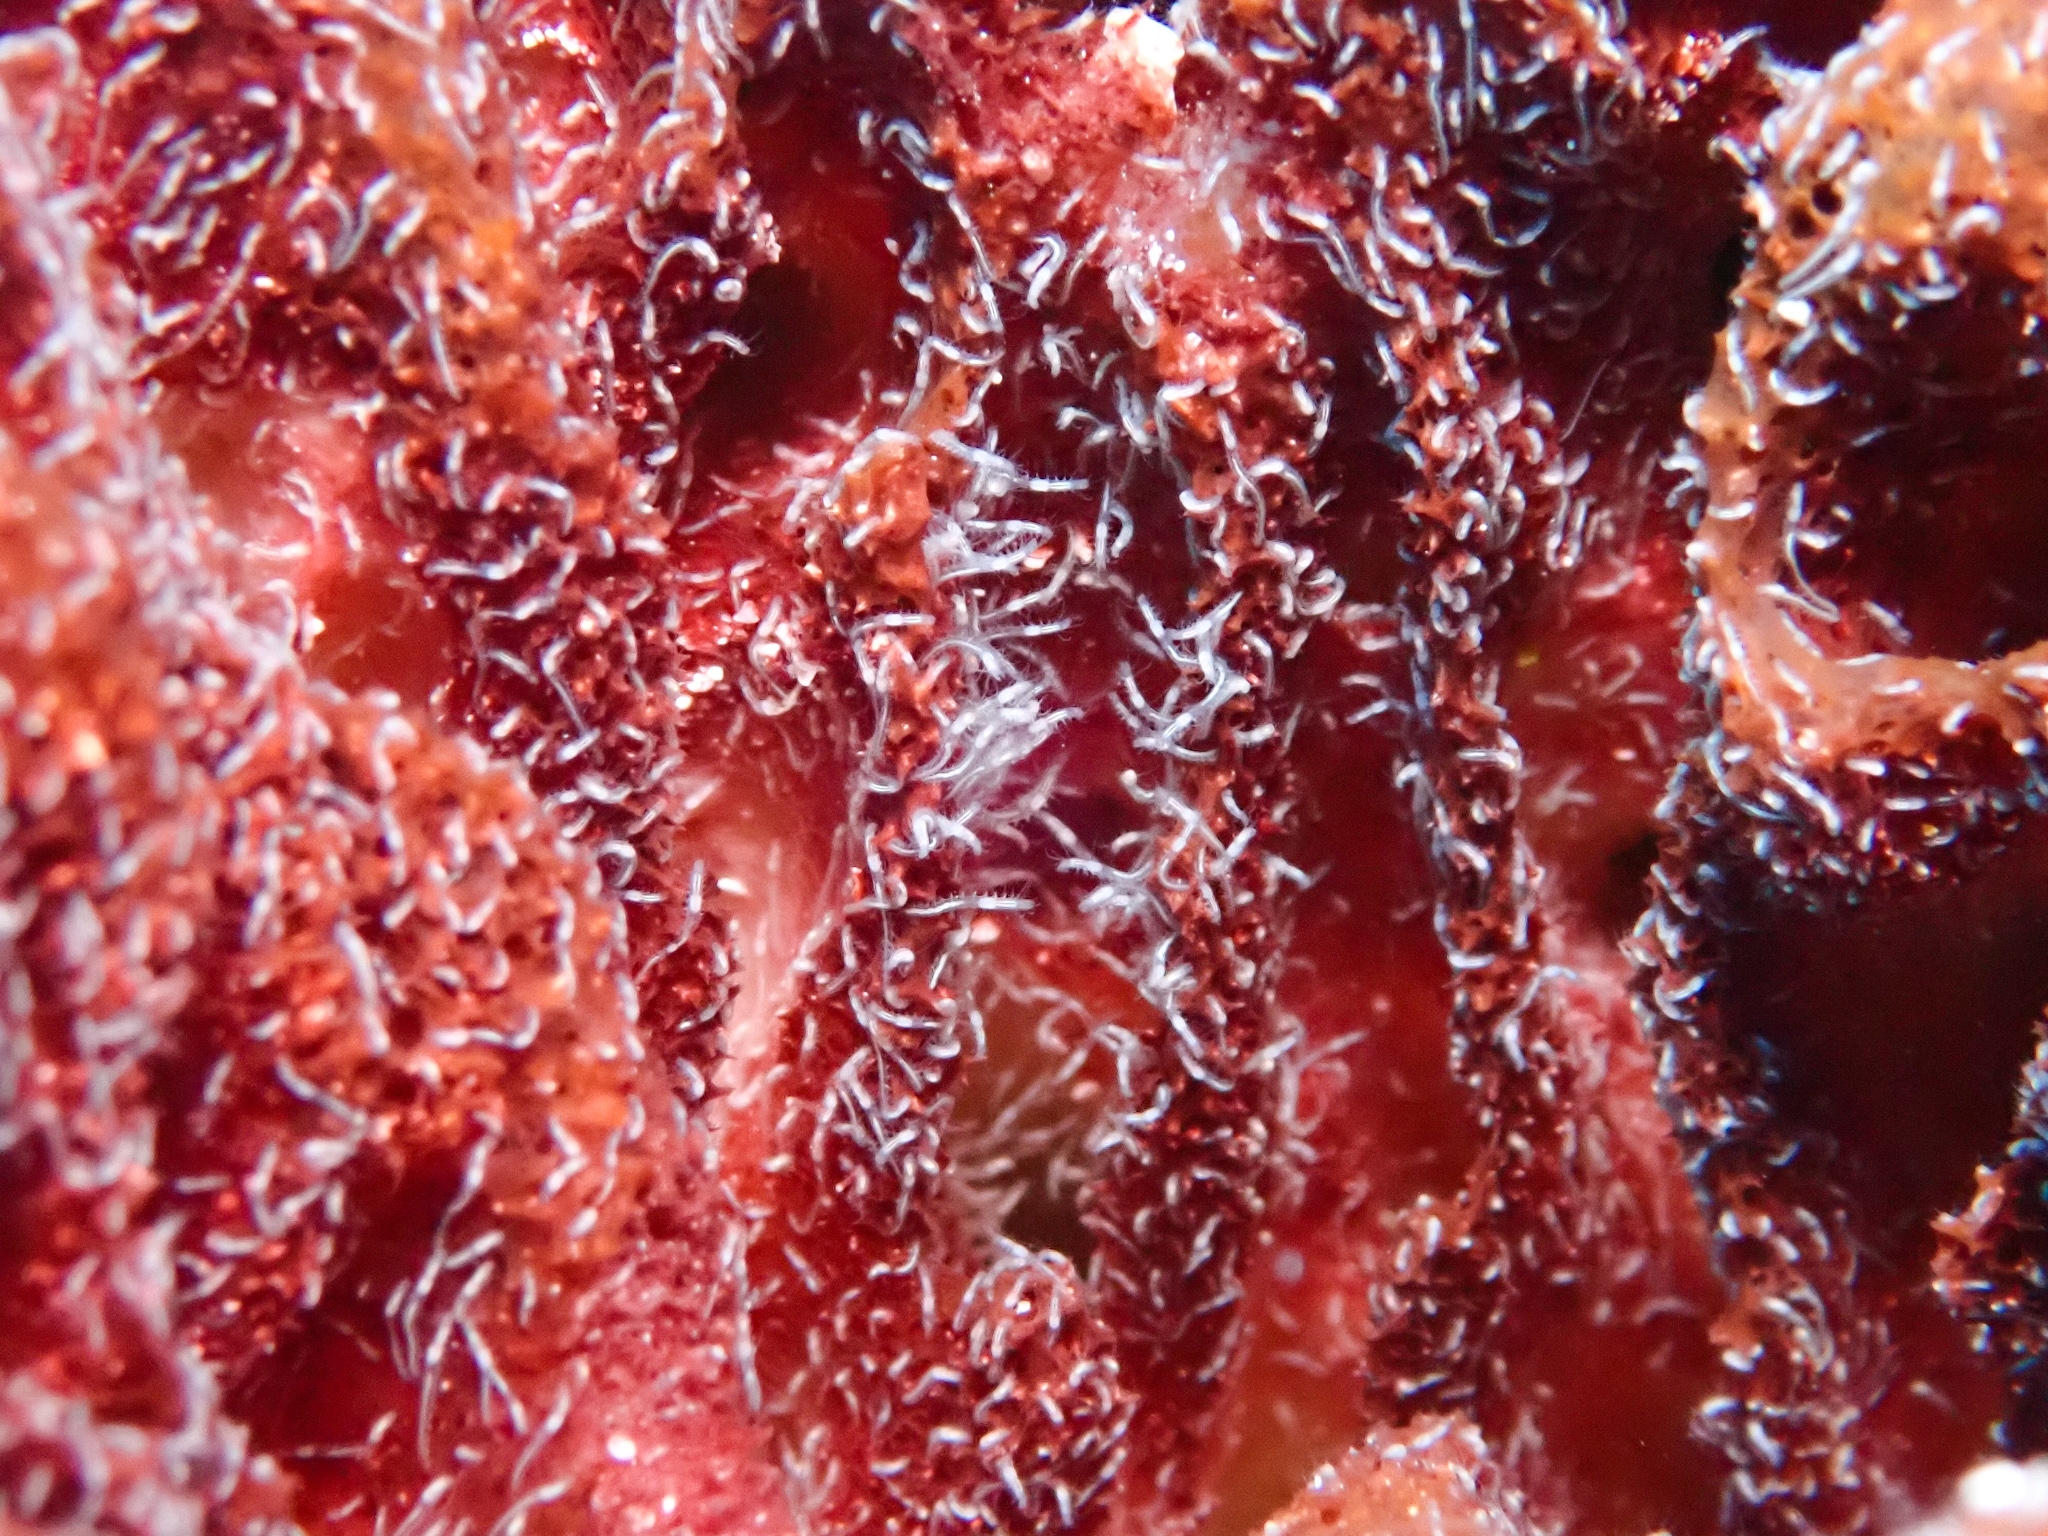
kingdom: Animalia
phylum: Annelida
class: Polychaeta
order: Phyllodocida
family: Syllidae
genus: Haplosyllis
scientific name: Haplosyllis gula
